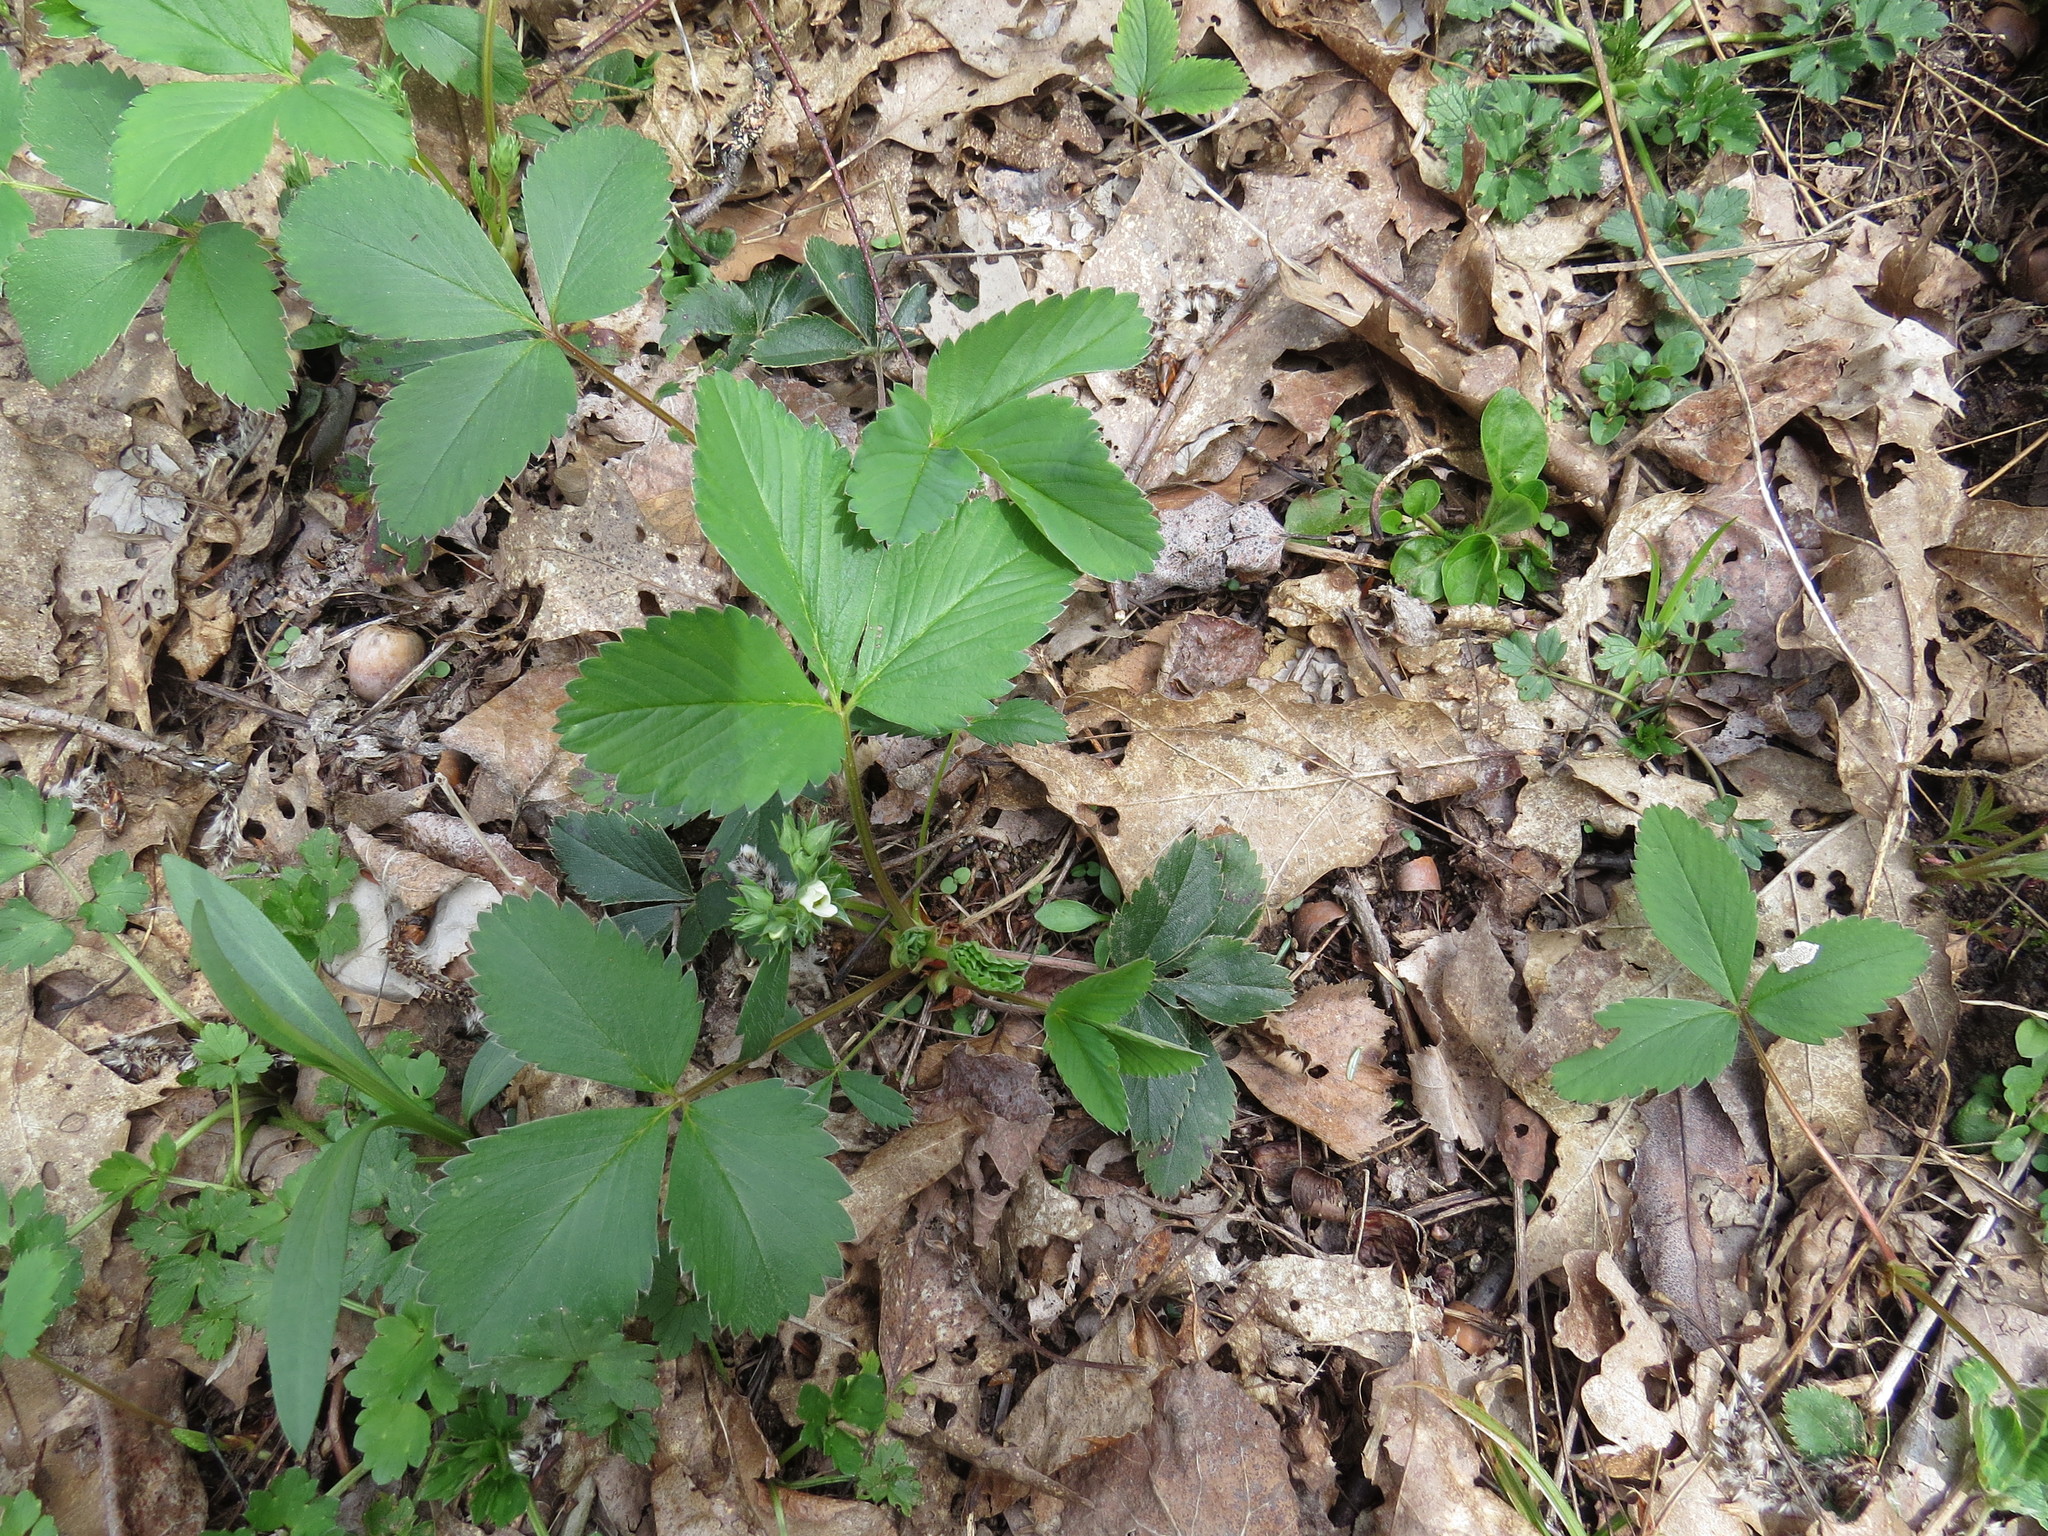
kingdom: Plantae
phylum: Tracheophyta
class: Magnoliopsida
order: Rosales
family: Rosaceae
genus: Fragaria
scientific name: Fragaria virginiana
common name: Thickleaved wild strawberry
